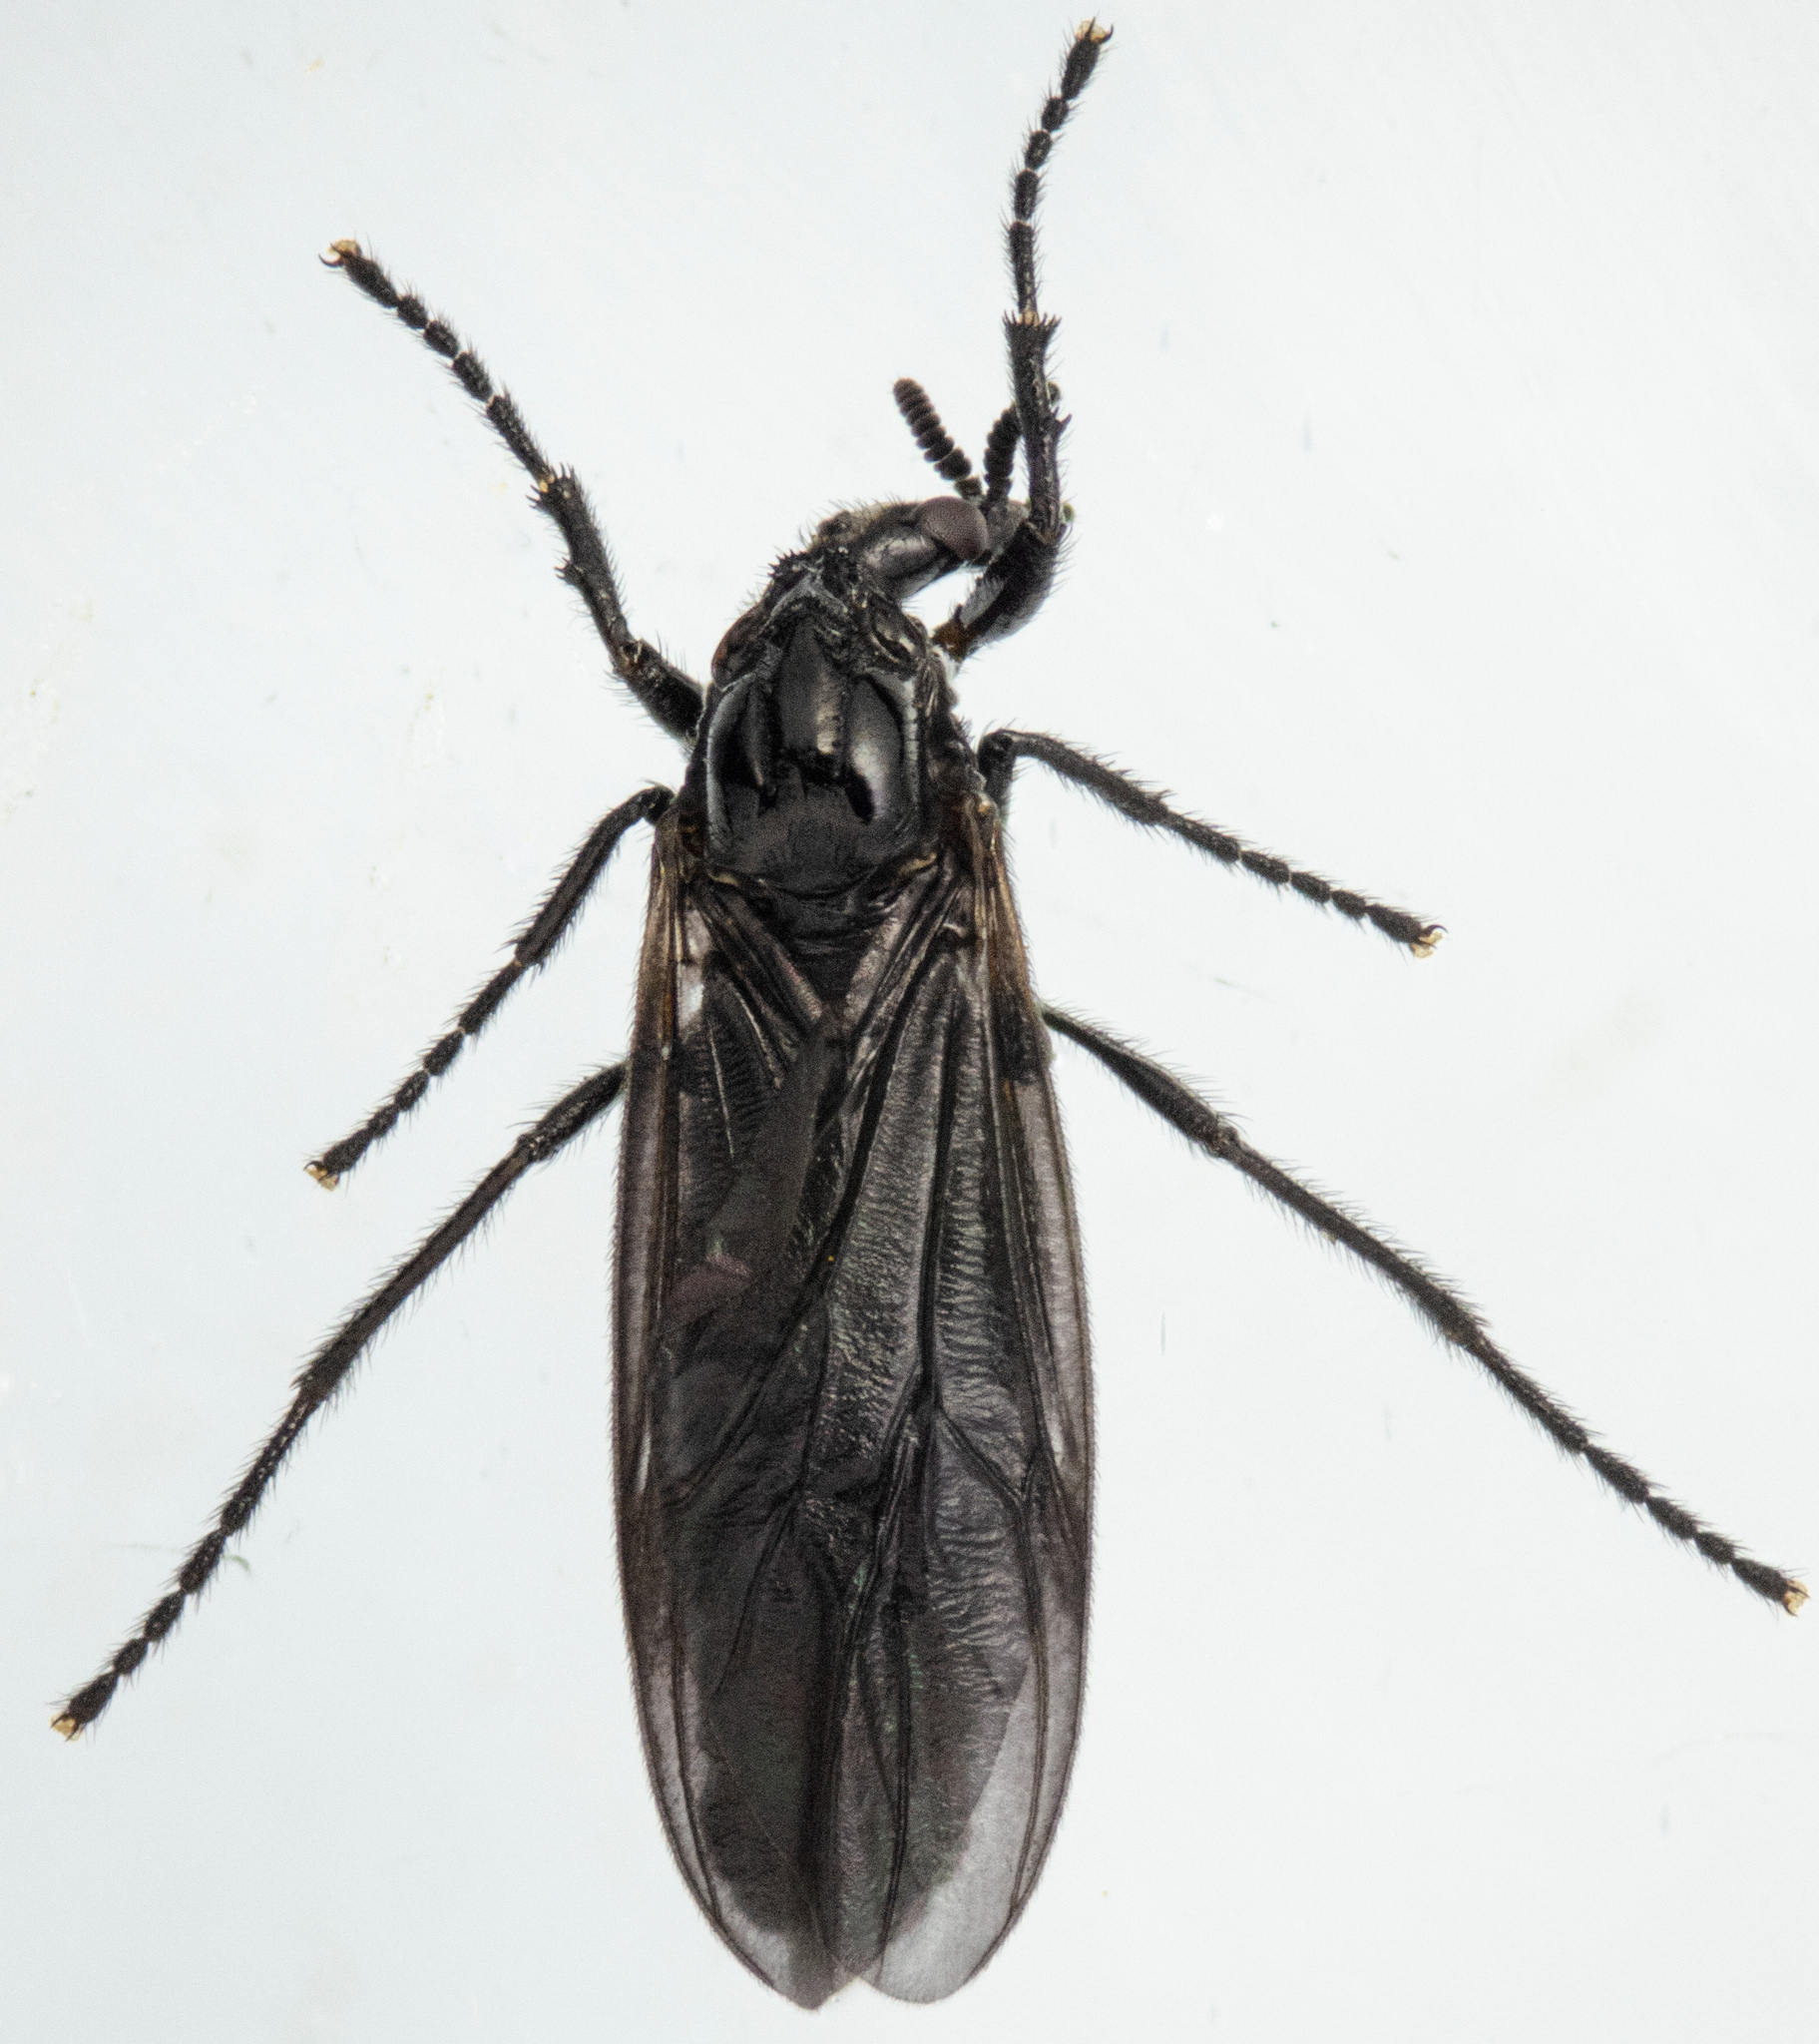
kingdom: Animalia
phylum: Arthropoda
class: Insecta
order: Diptera
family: Bibionidae
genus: Dilophus
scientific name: Dilophus orbatus
